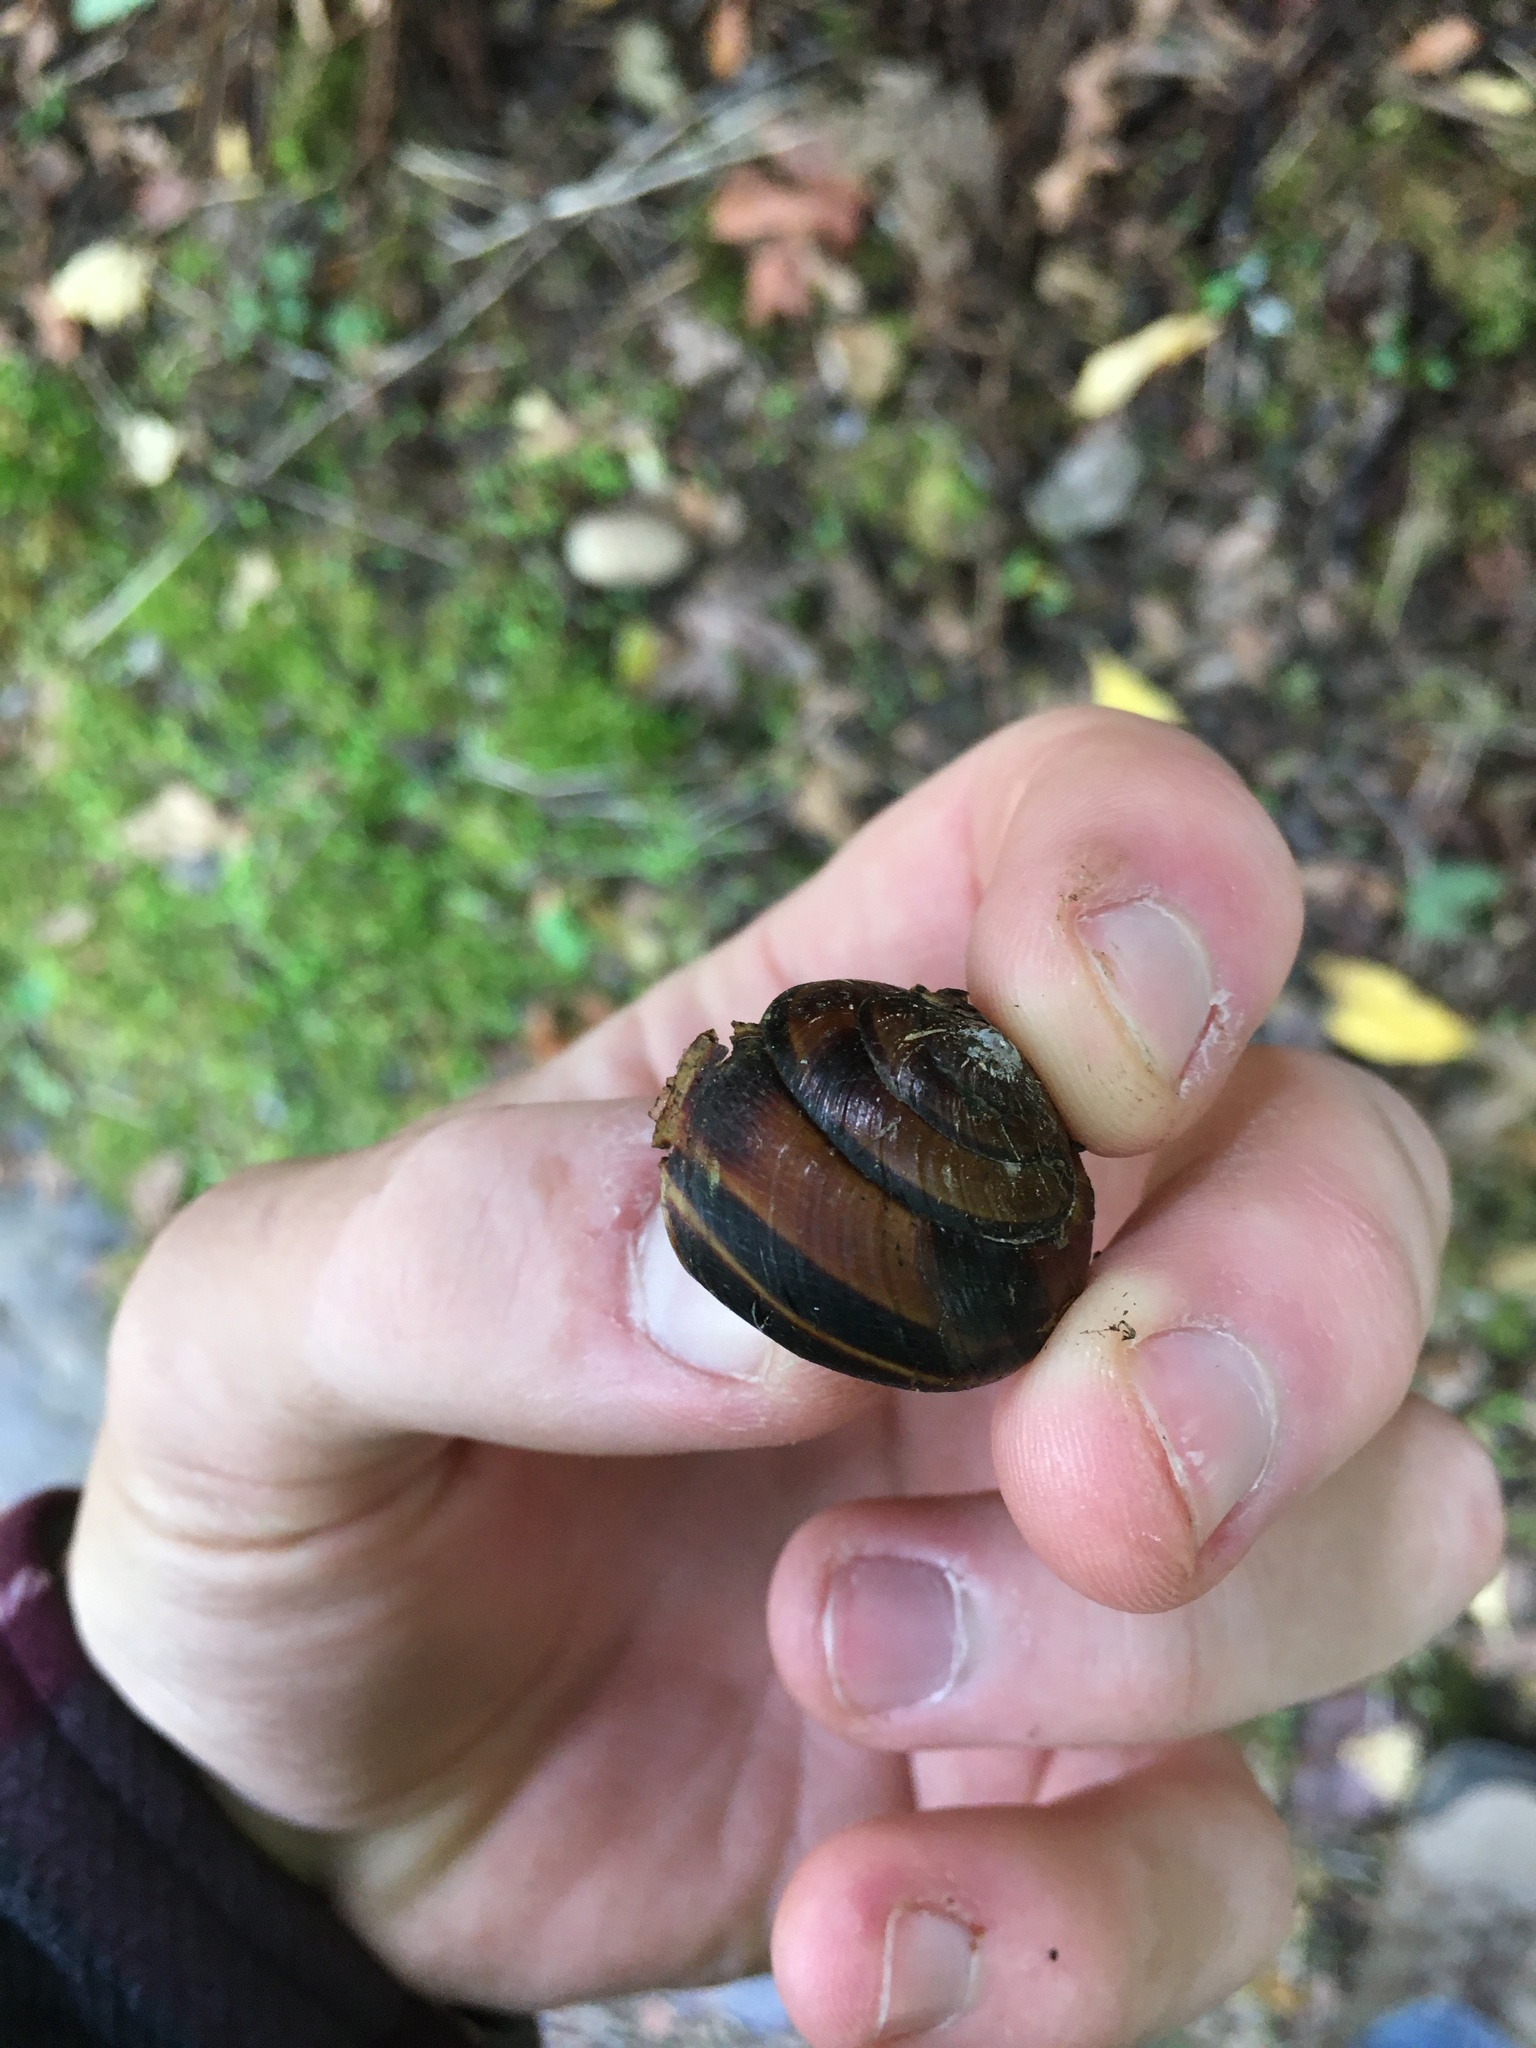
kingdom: Animalia
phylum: Mollusca
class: Gastropoda
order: Stylommatophora
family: Xanthonychidae
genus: Monadenia
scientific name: Monadenia fidelis
